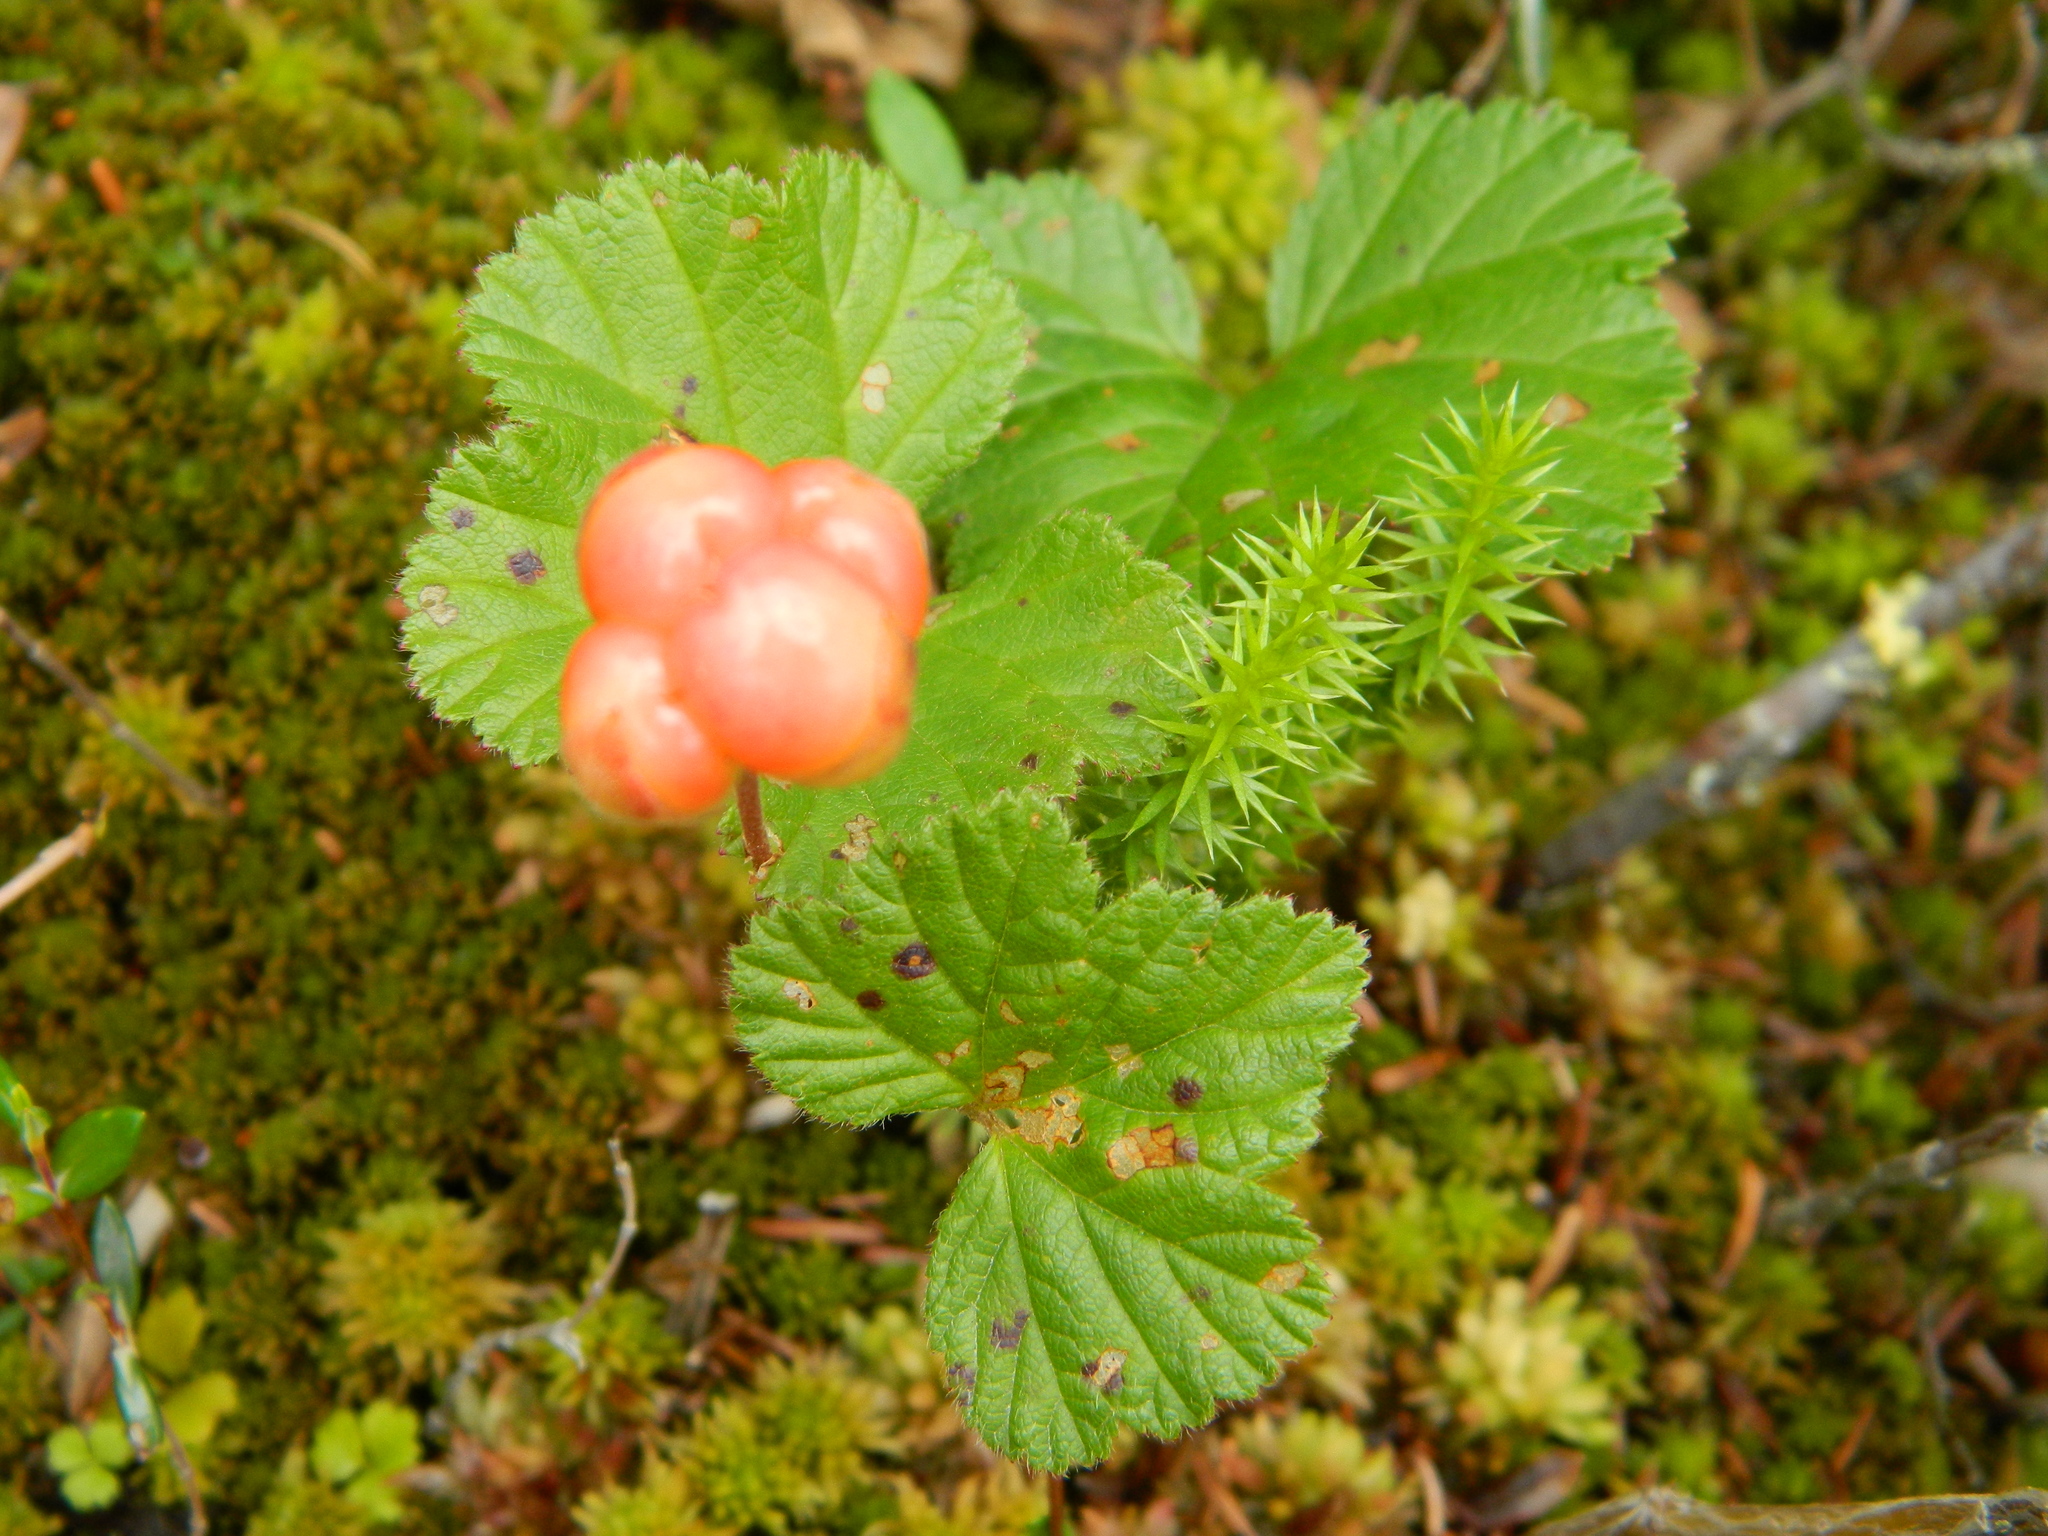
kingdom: Plantae
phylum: Tracheophyta
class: Magnoliopsida
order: Rosales
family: Rosaceae
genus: Rubus
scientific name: Rubus chamaemorus
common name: Cloudberry
